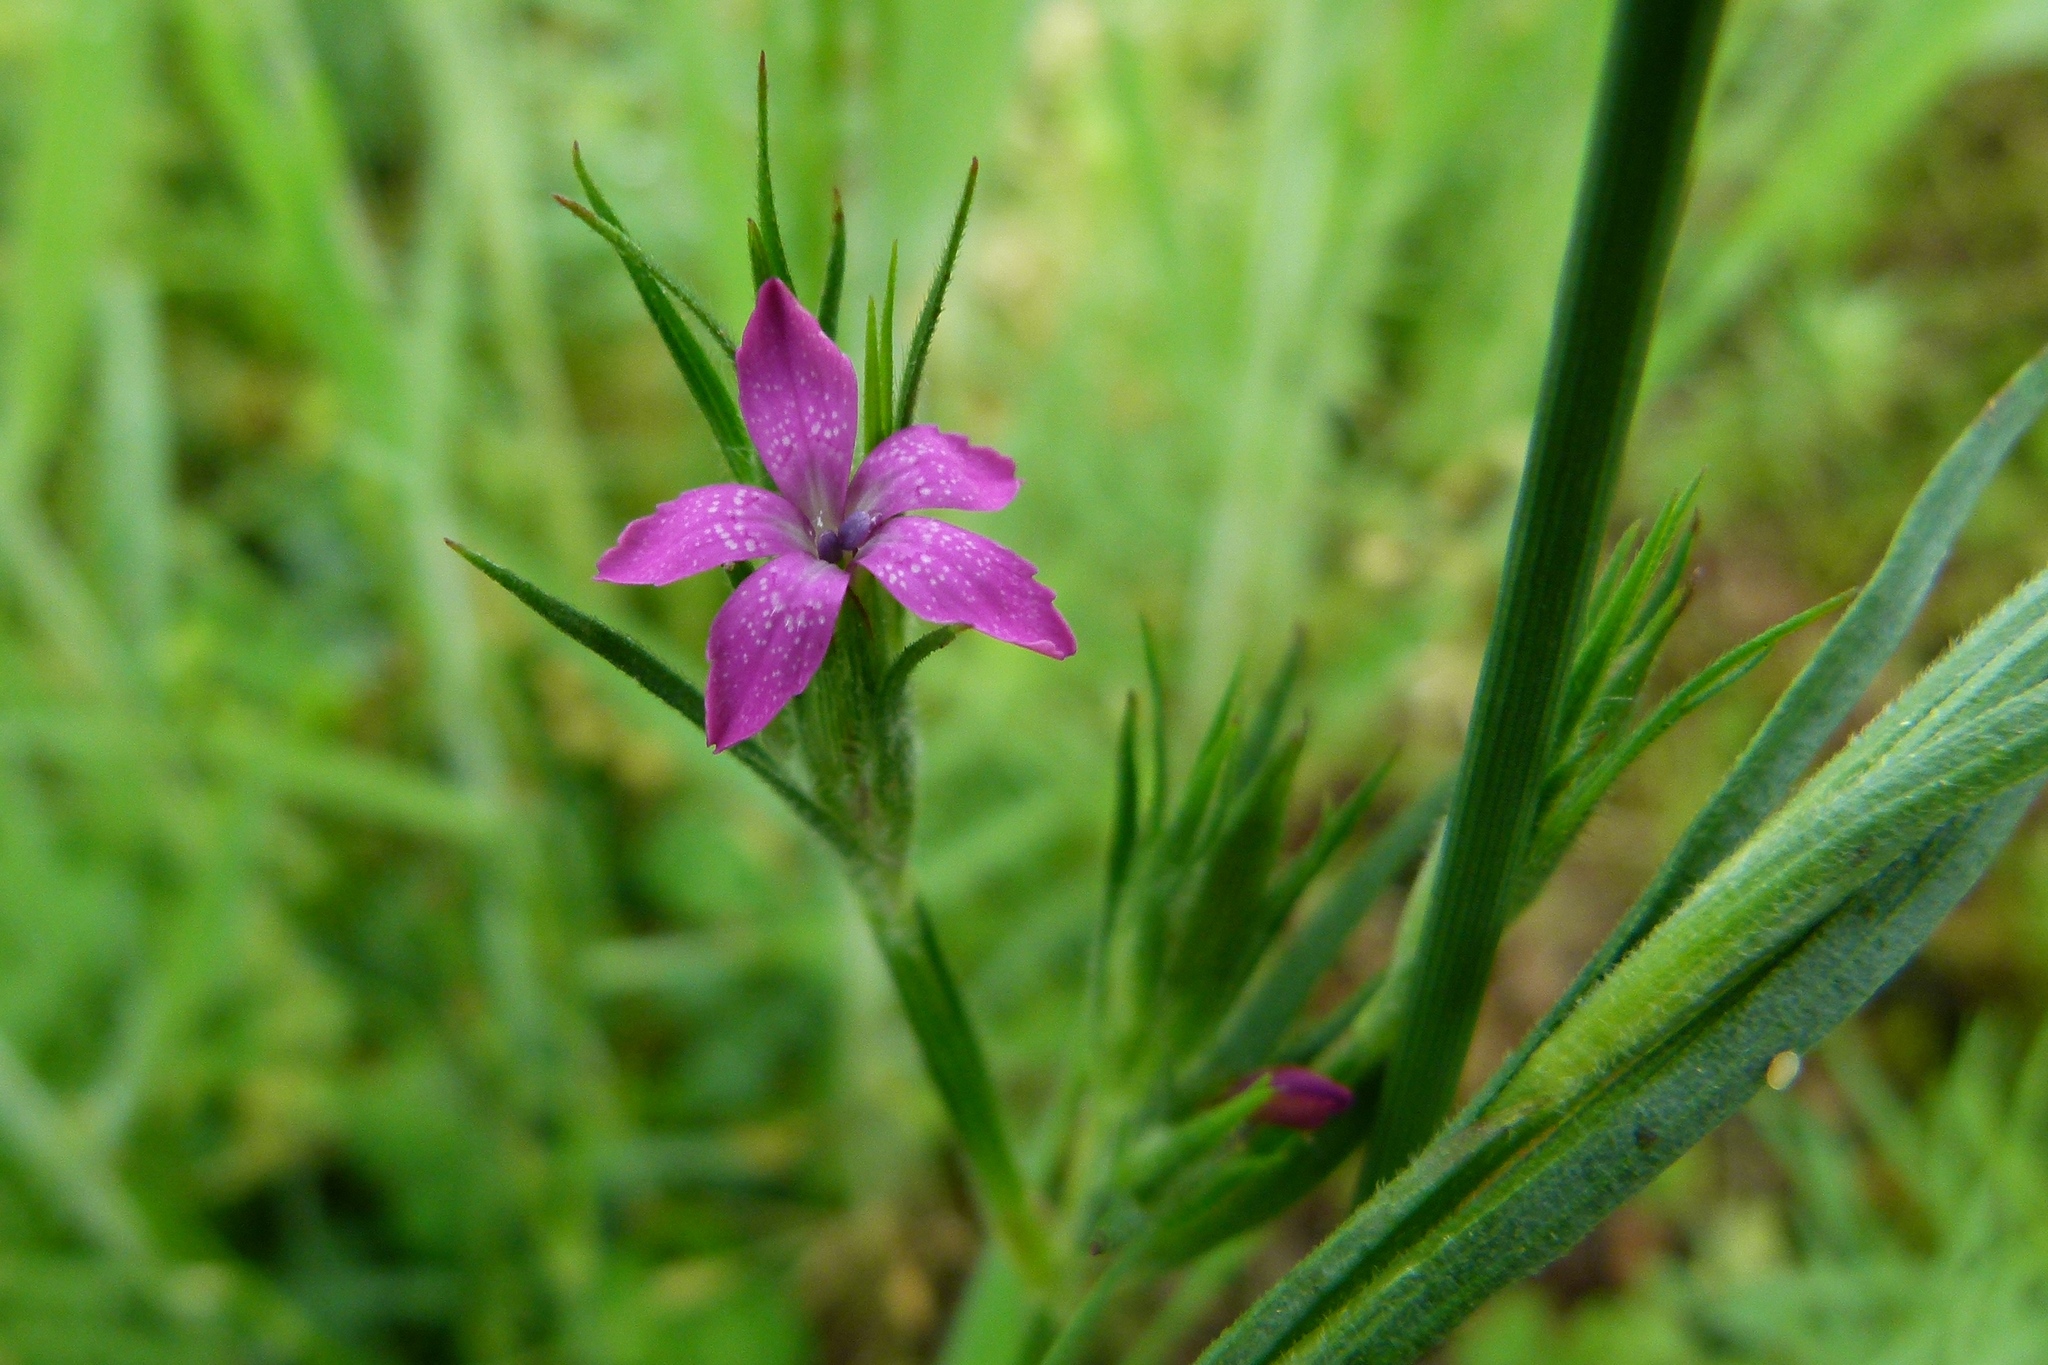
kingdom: Plantae
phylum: Tracheophyta
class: Magnoliopsida
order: Caryophyllales
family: Caryophyllaceae
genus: Dianthus
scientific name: Dianthus armeria
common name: Deptford pink
